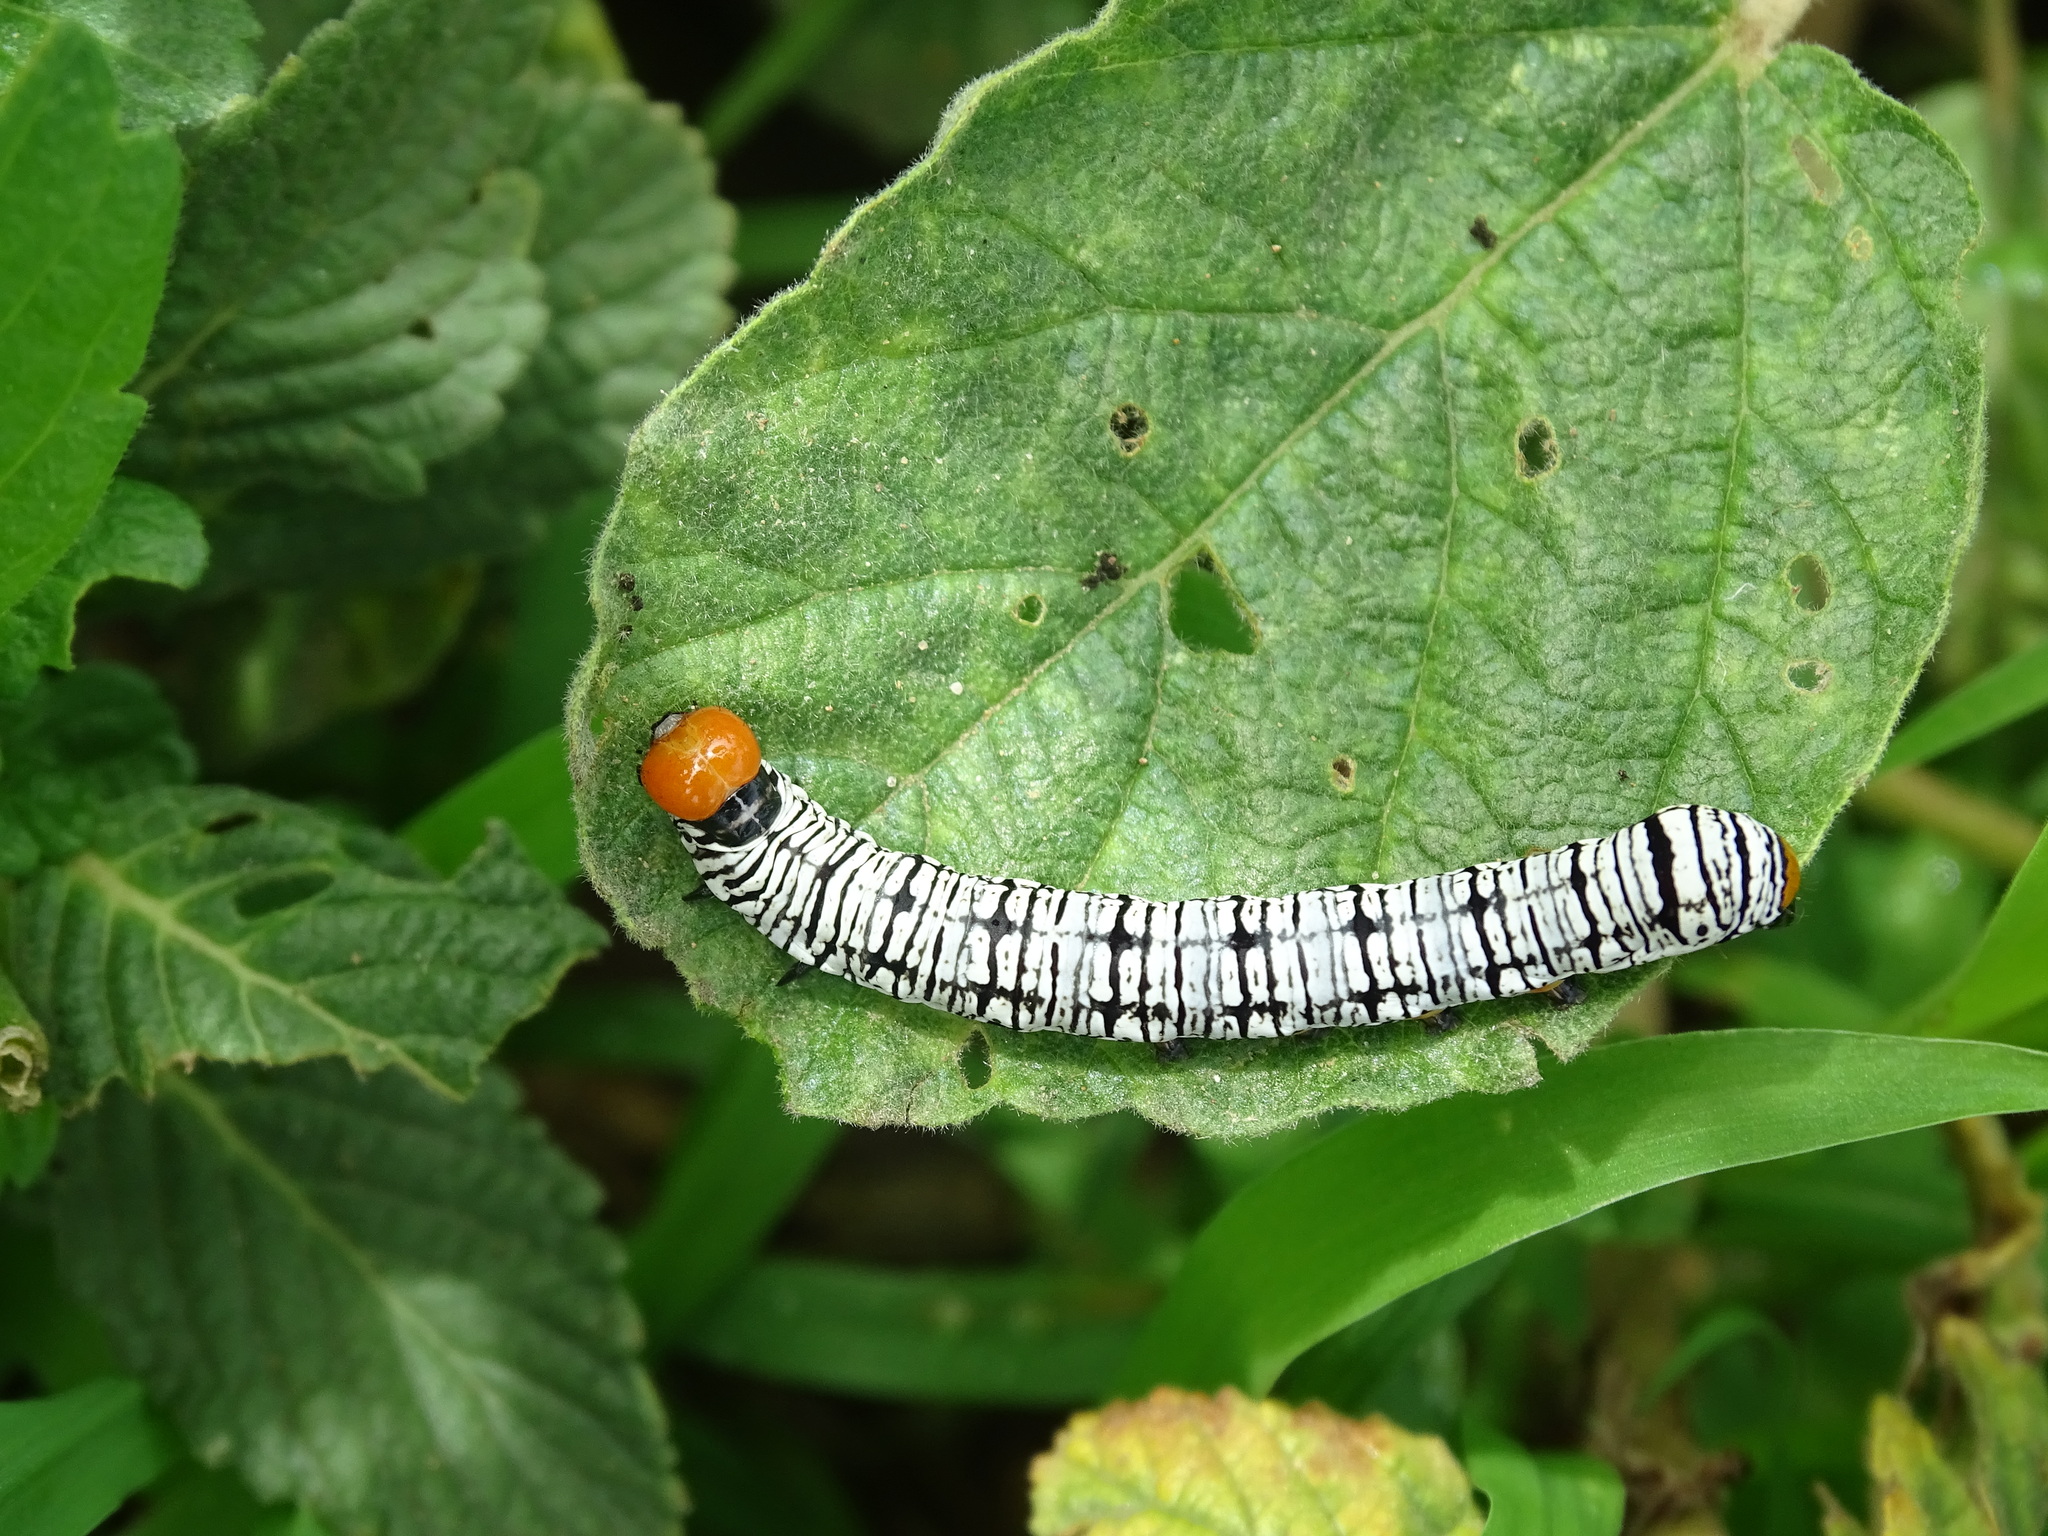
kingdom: Animalia
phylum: Arthropoda
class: Insecta
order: Lepidoptera
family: Erebidae
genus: Diphthera
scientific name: Diphthera festiva
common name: Hieroglyphic moth
